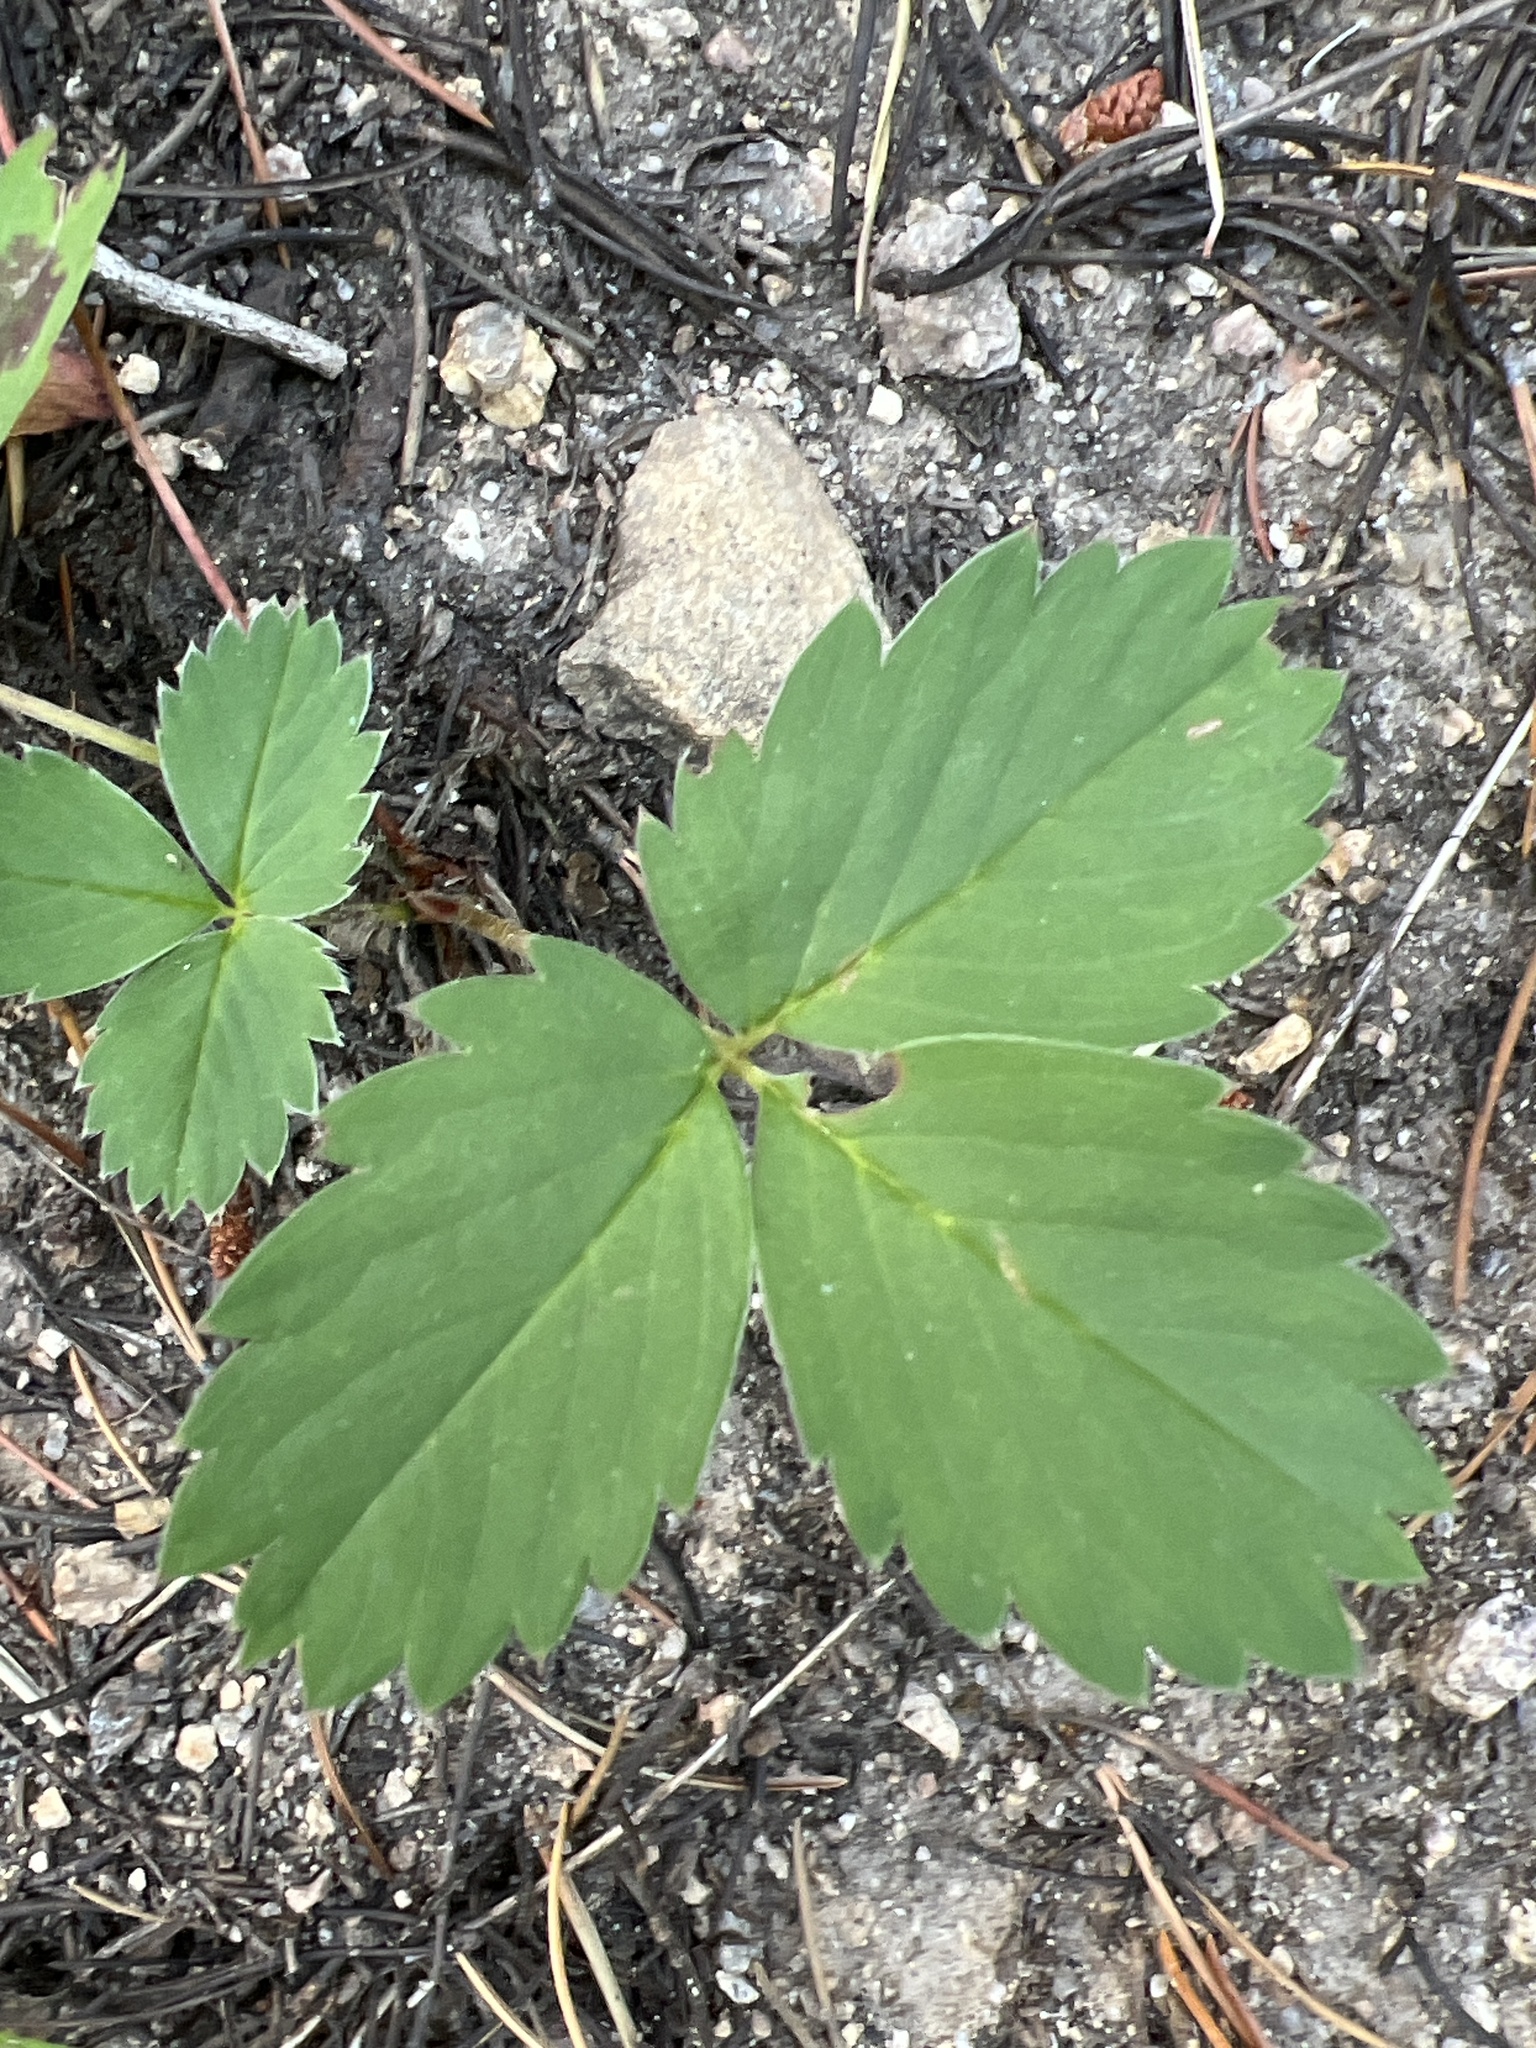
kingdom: Plantae
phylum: Tracheophyta
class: Magnoliopsida
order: Rosales
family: Rosaceae
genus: Fragaria
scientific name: Fragaria virginiana
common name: Thickleaved wild strawberry
